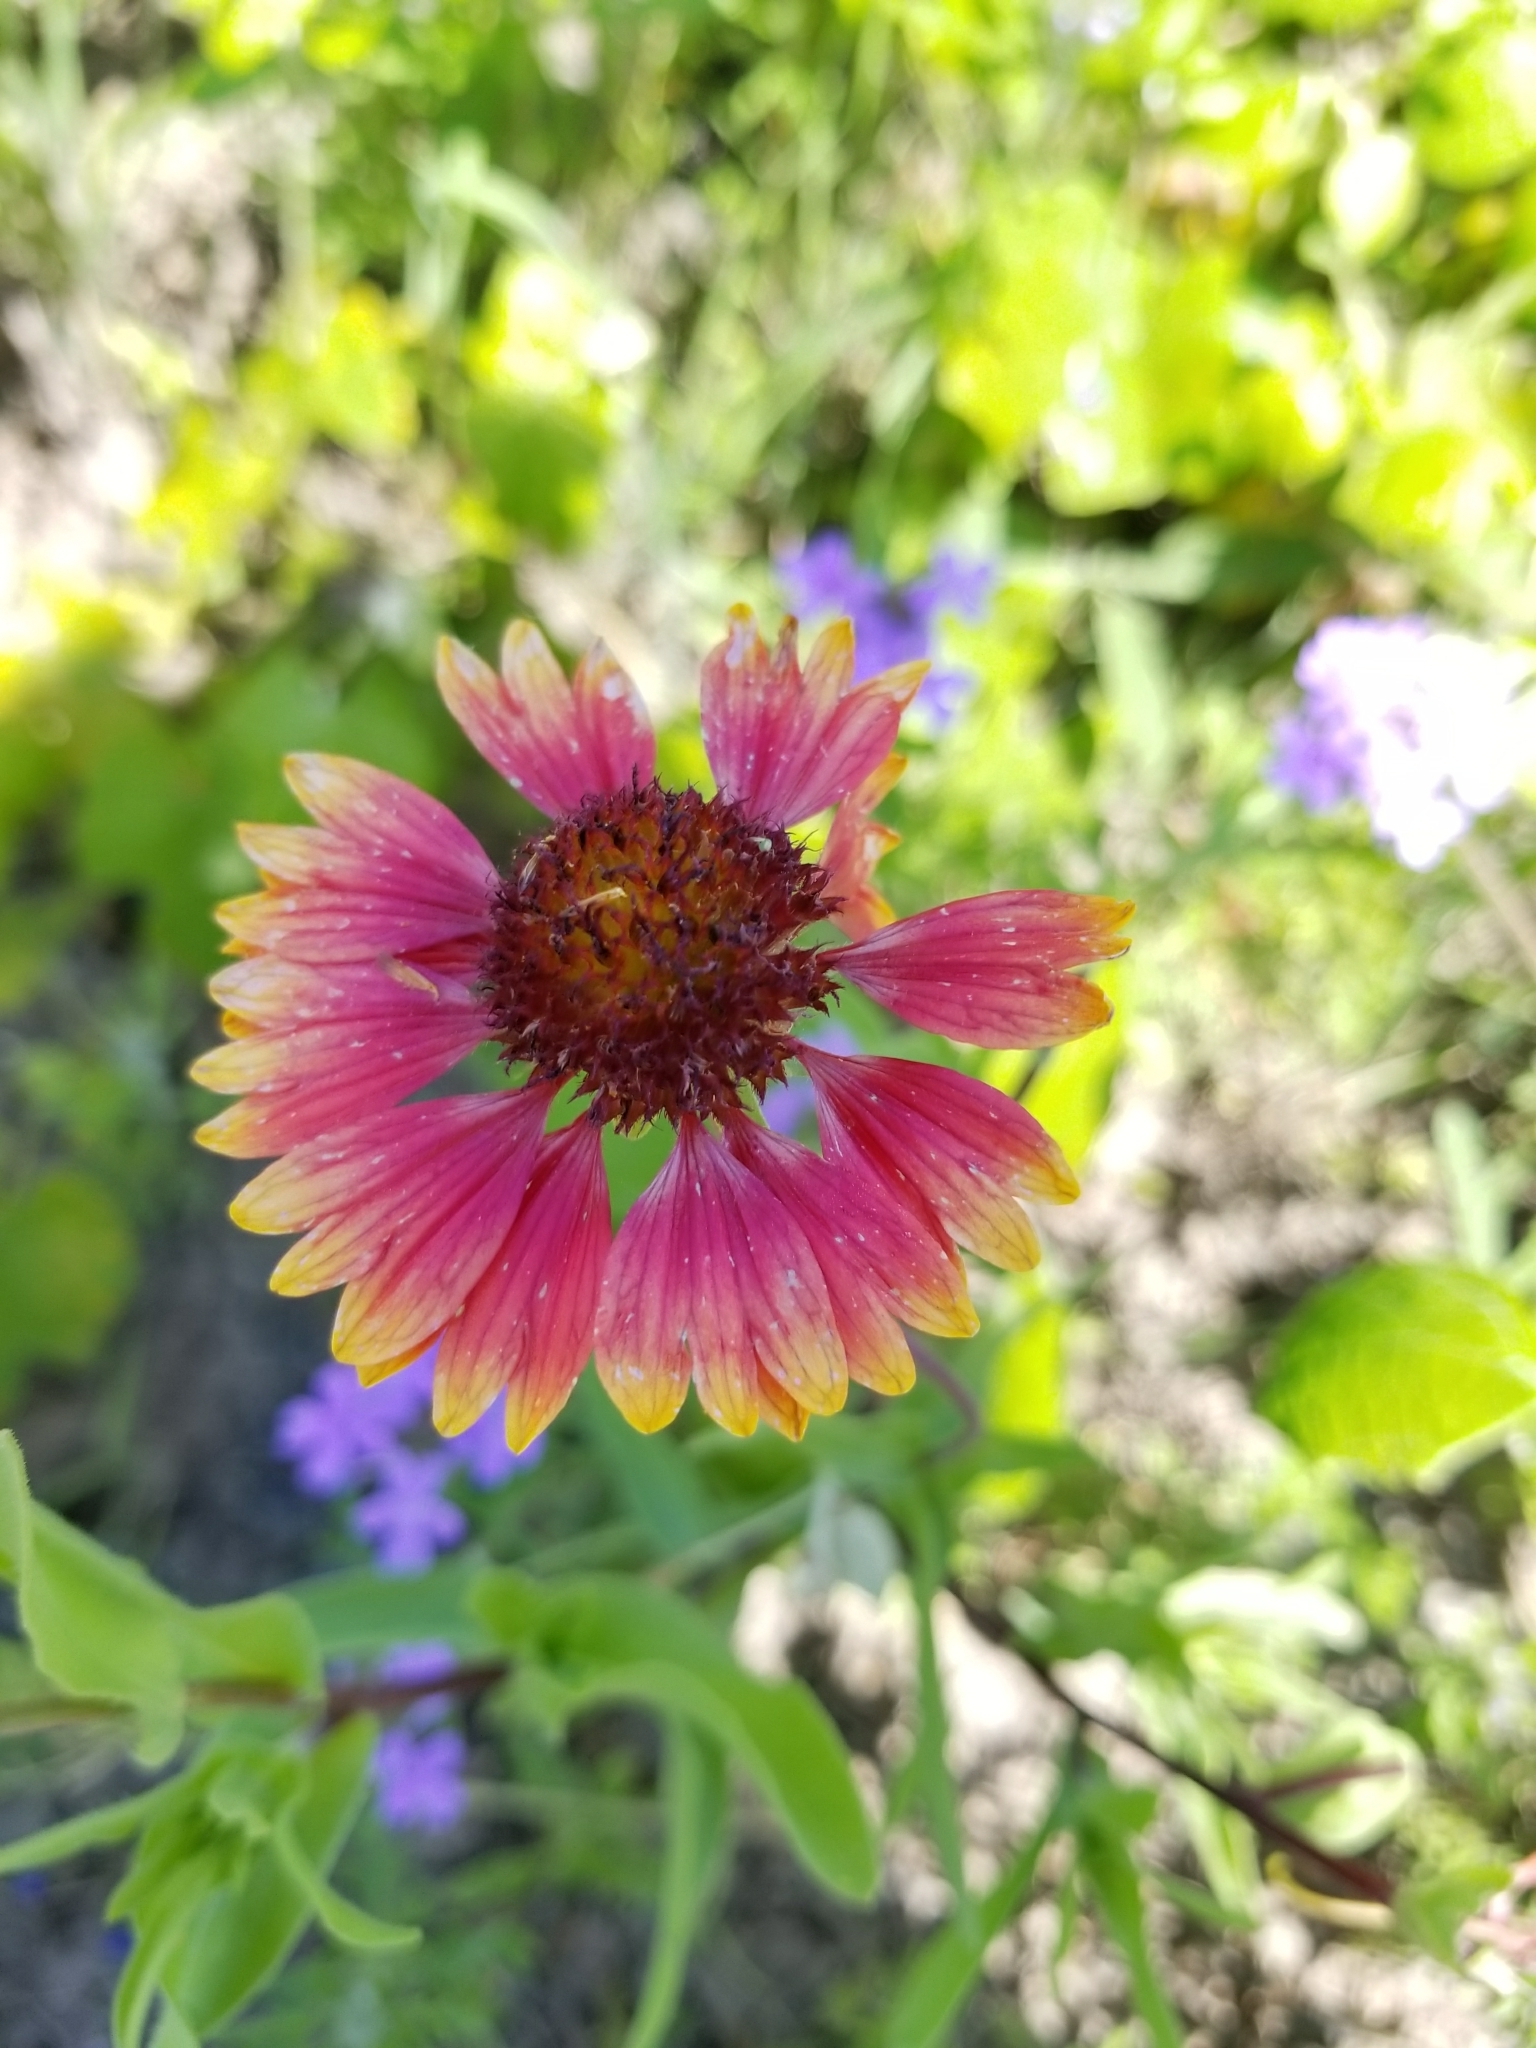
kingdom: Plantae
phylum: Tracheophyta
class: Magnoliopsida
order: Asterales
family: Asteraceae
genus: Gaillardia
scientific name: Gaillardia pulchella
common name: Firewheel
